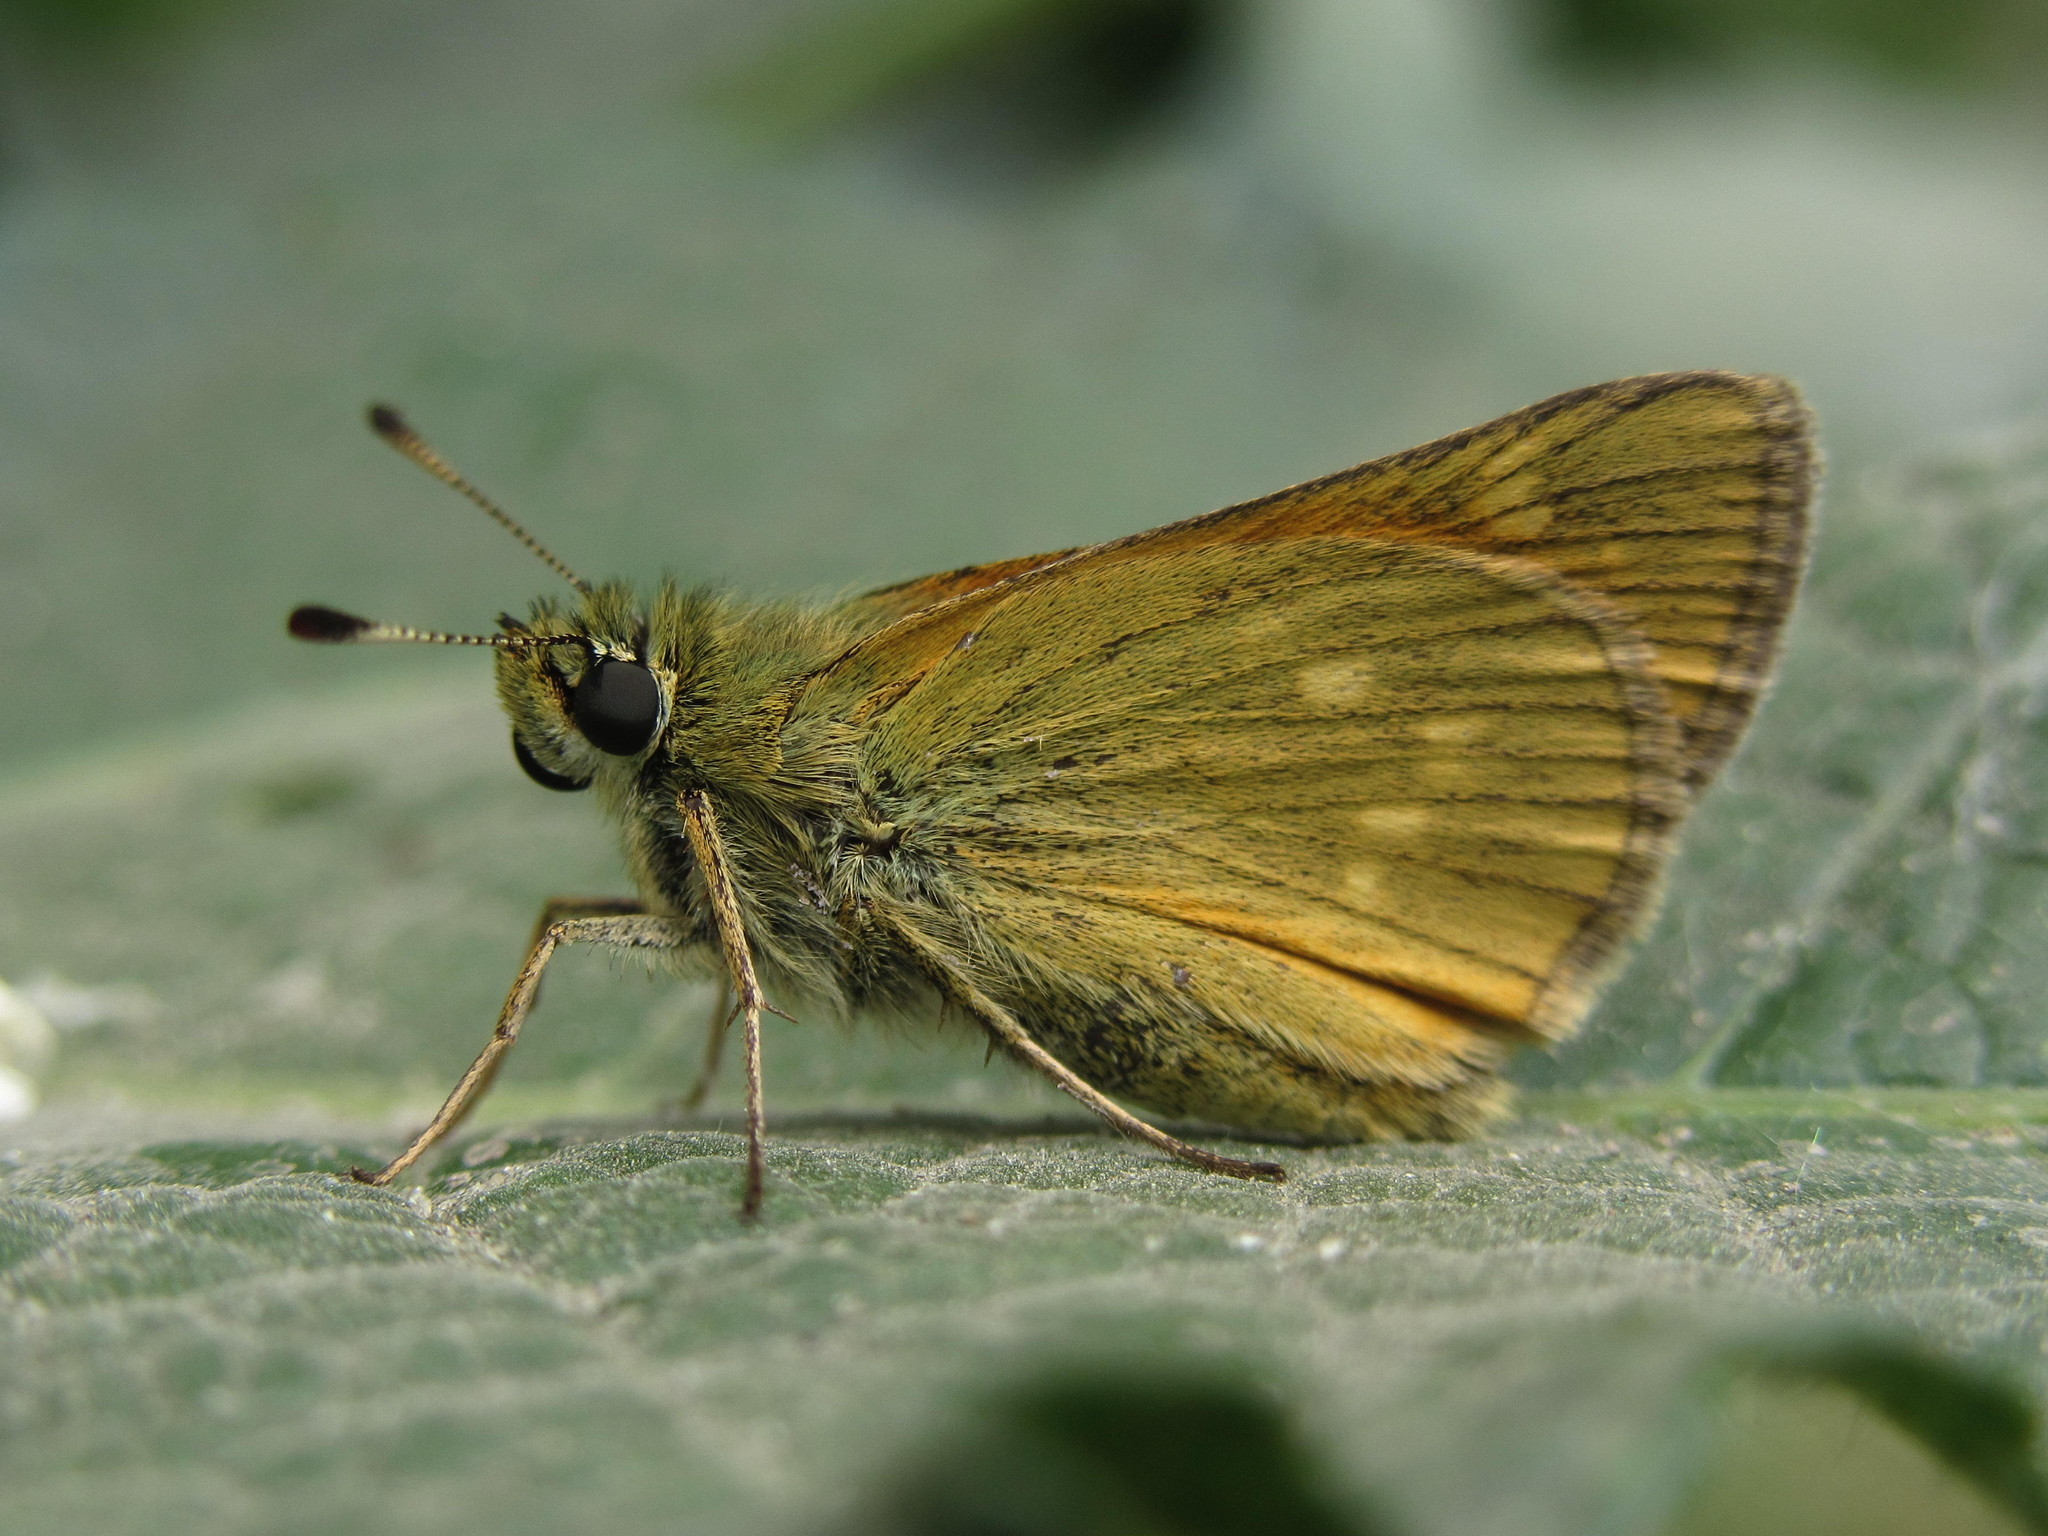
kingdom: Animalia
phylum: Arthropoda
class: Insecta
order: Lepidoptera
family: Hesperiidae
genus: Ochlodes
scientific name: Ochlodes venata
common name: Large skipper
